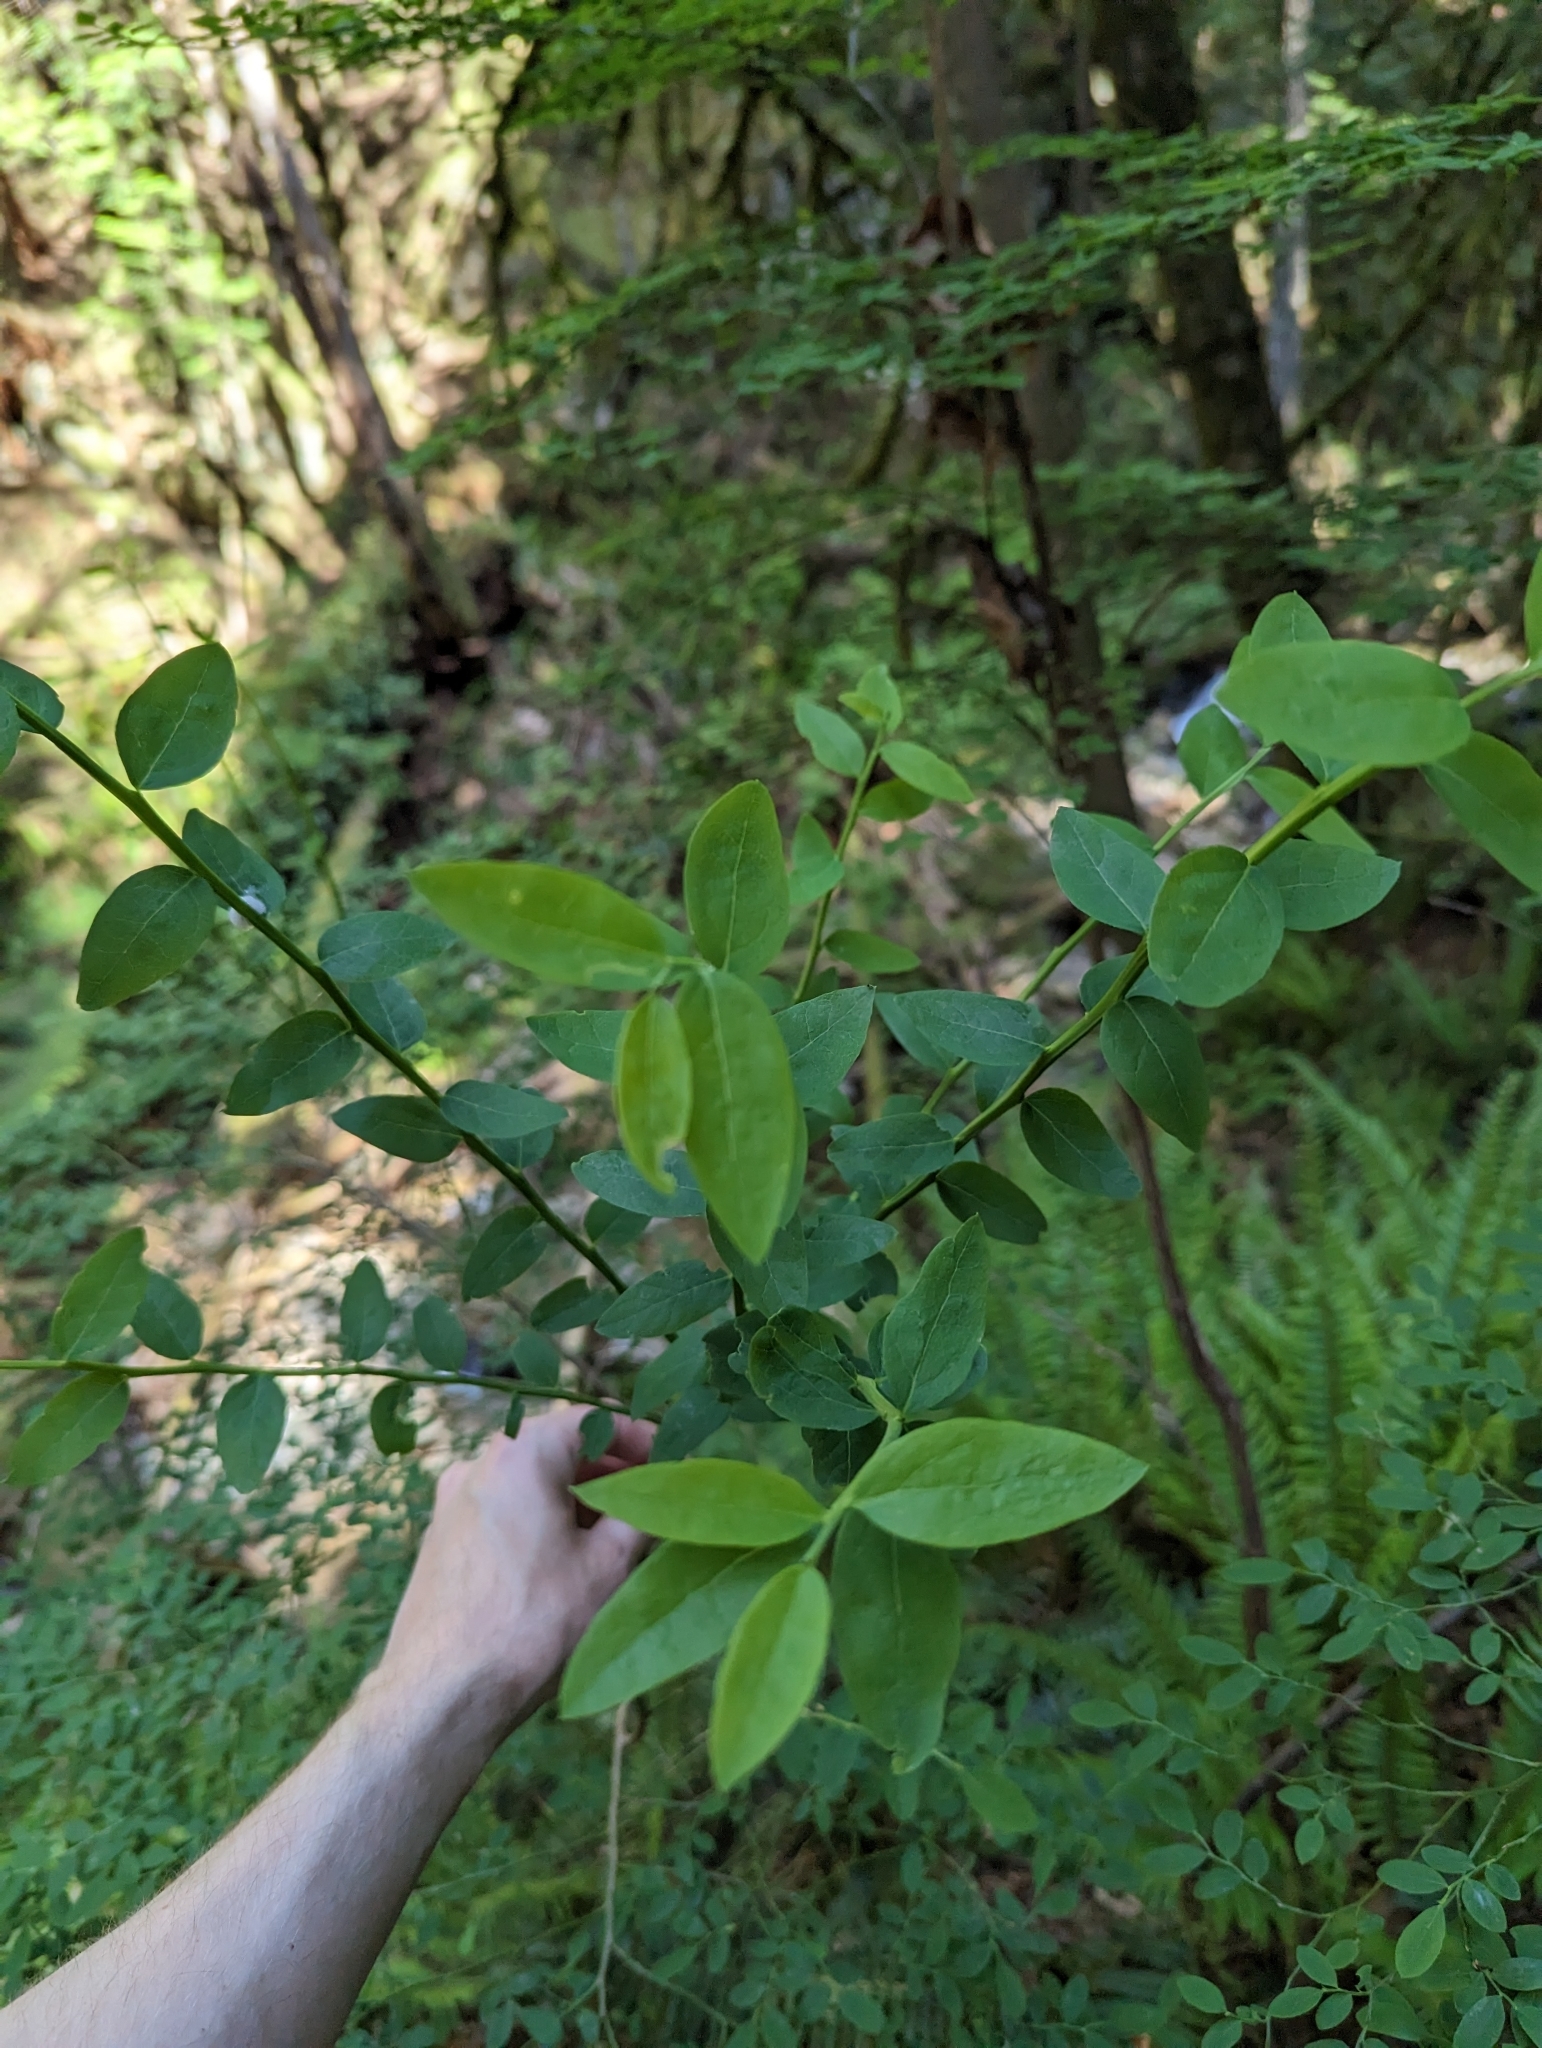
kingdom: Plantae
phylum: Tracheophyta
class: Magnoliopsida
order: Ericales
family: Ericaceae
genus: Vaccinium
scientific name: Vaccinium parvifolium
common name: Red-huckleberry
